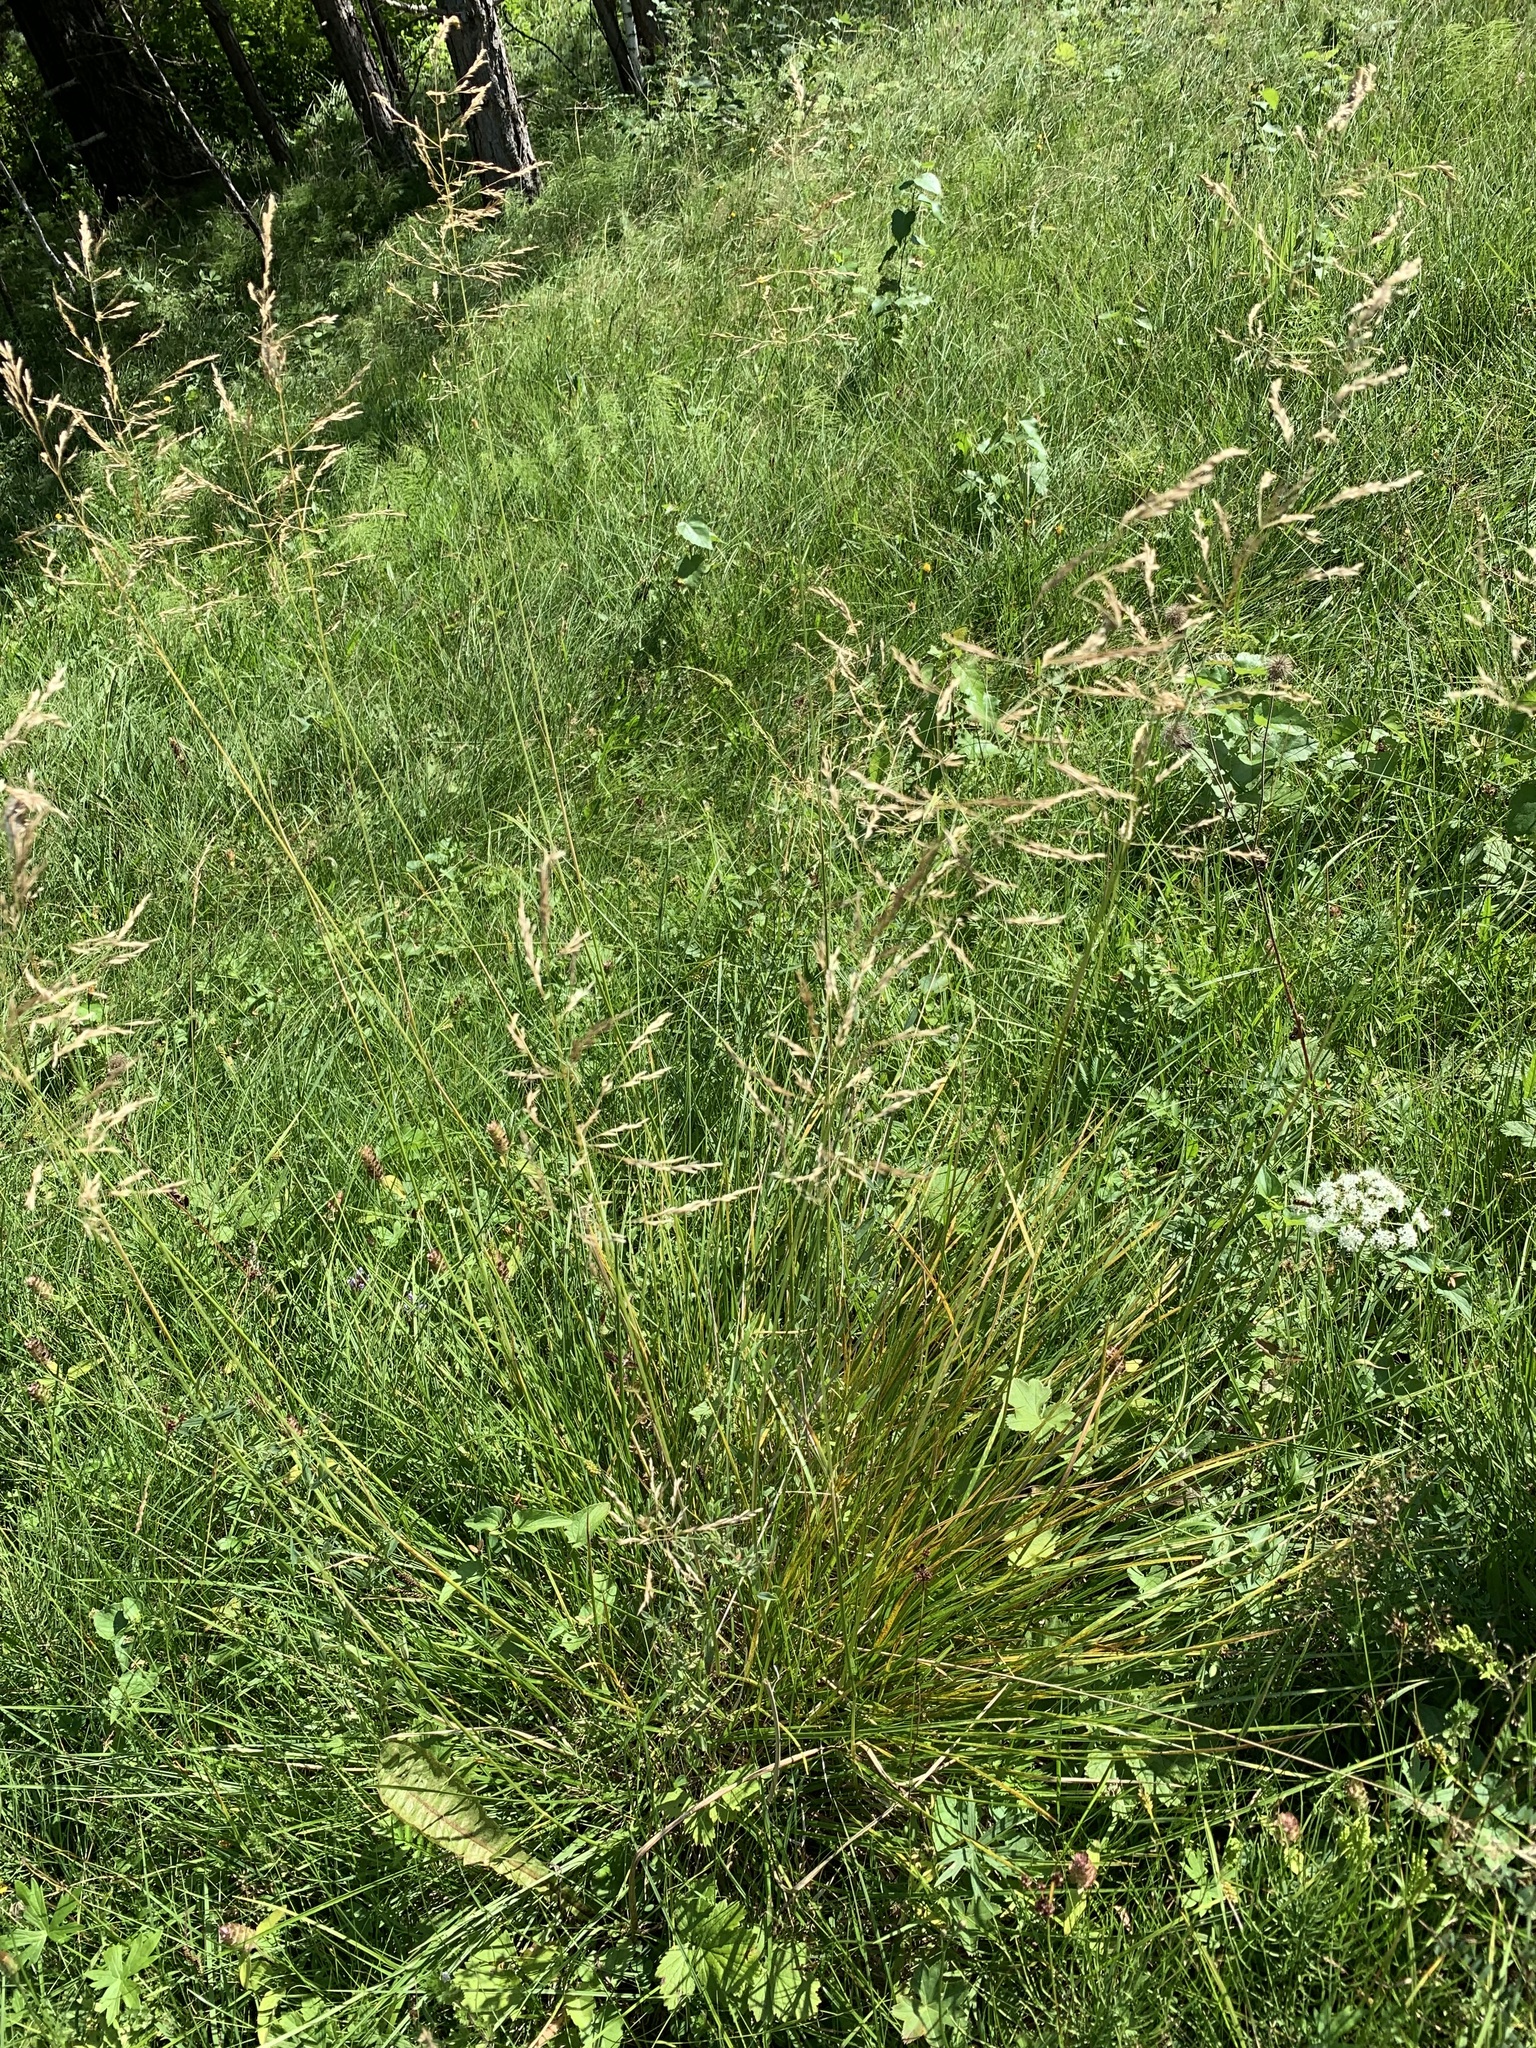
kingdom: Plantae
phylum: Tracheophyta
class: Liliopsida
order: Poales
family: Poaceae
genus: Deschampsia
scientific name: Deschampsia cespitosa
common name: Tufted hair-grass
